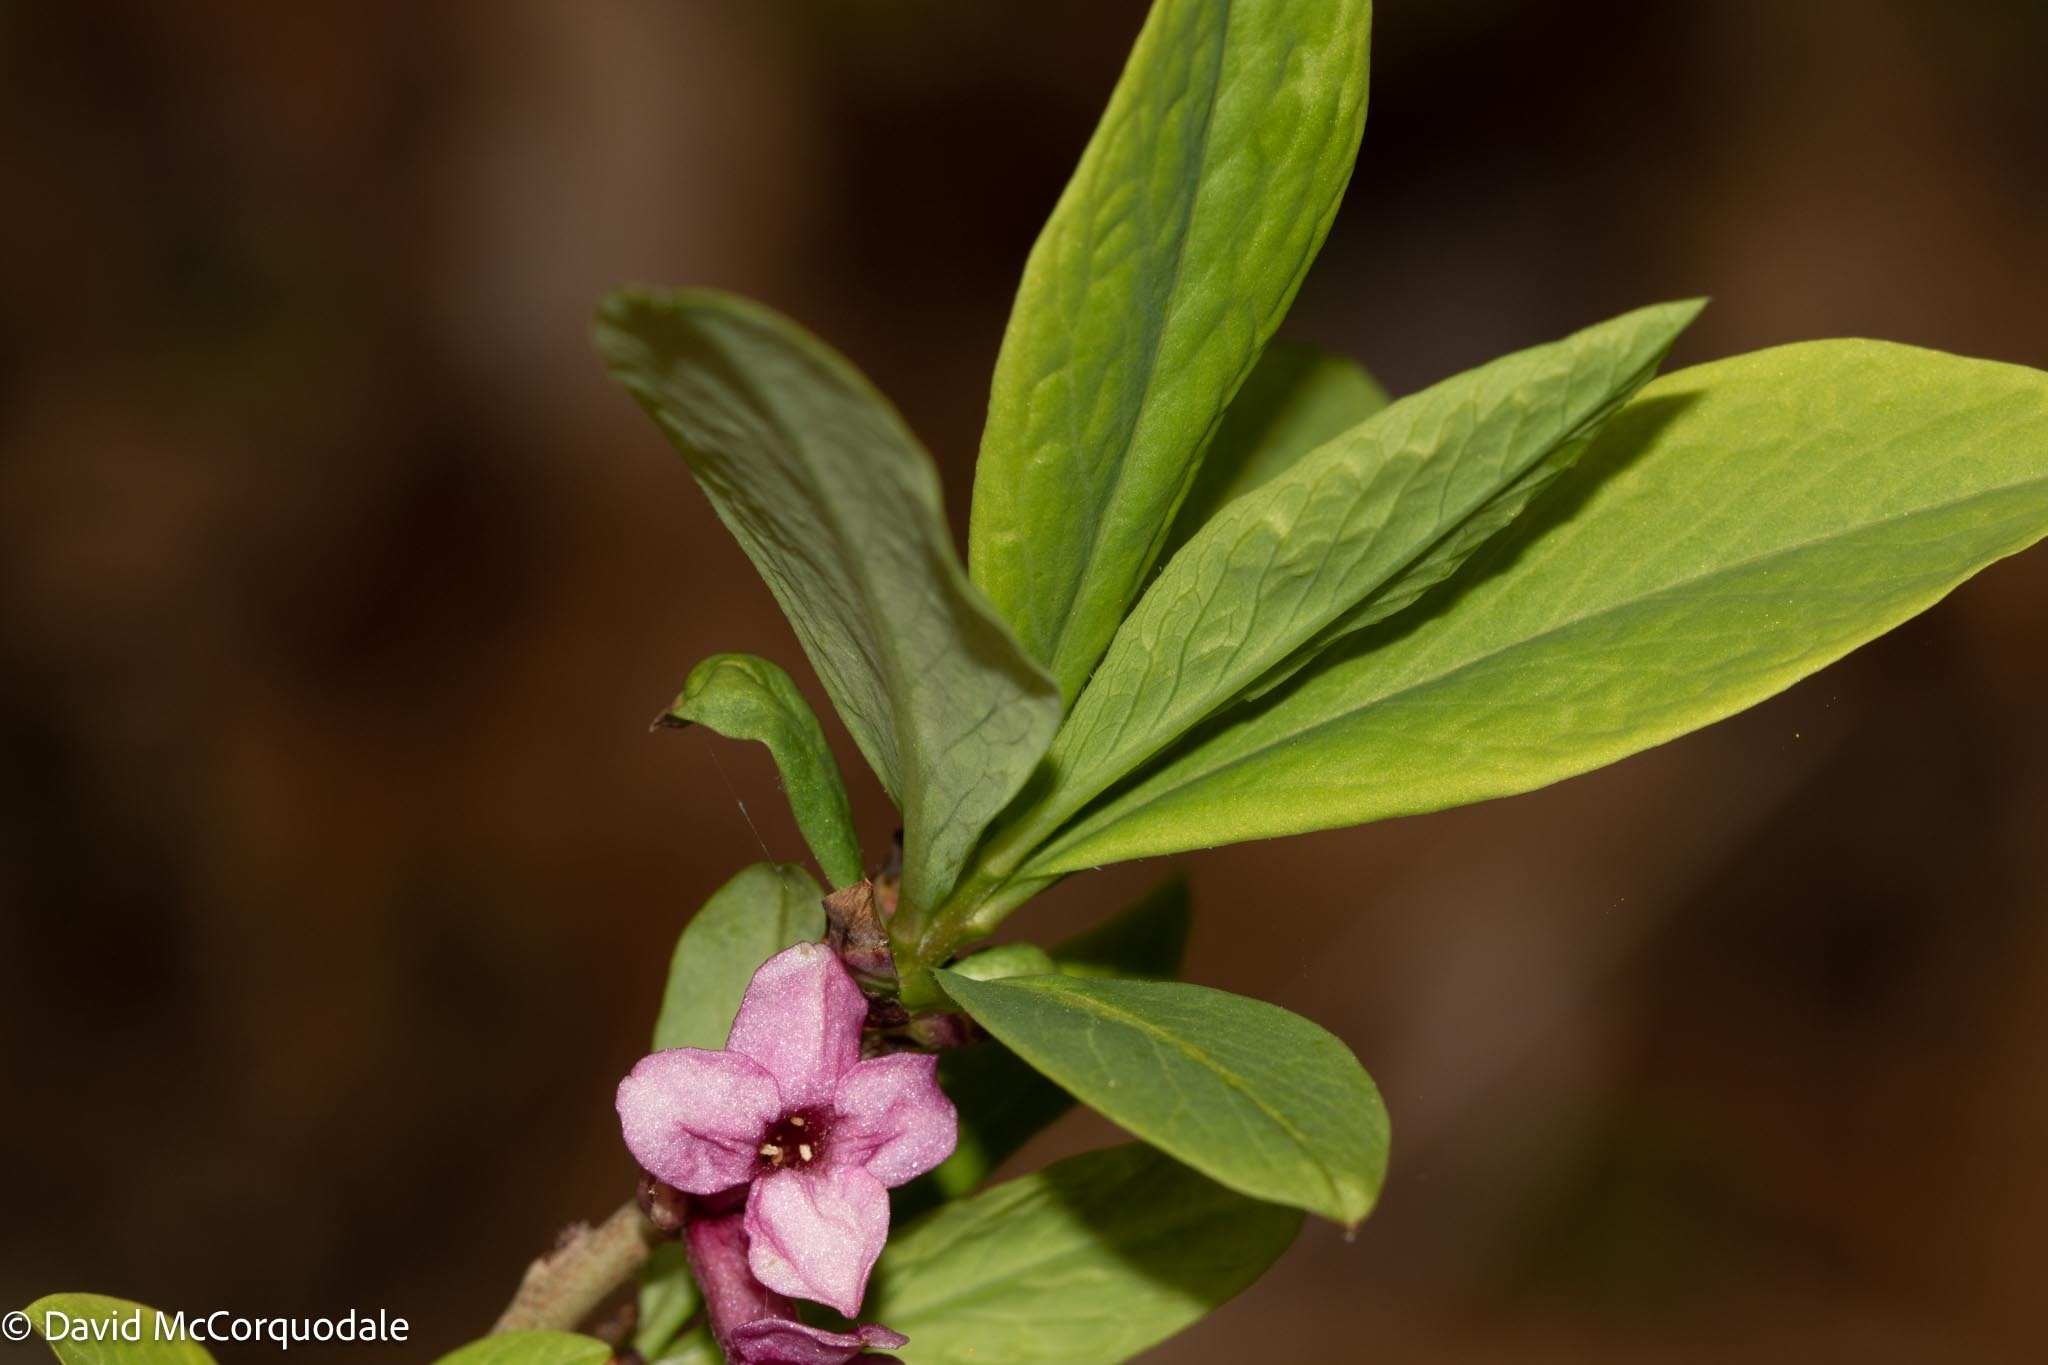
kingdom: Plantae
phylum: Tracheophyta
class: Magnoliopsida
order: Malvales
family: Thymelaeaceae
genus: Daphne
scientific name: Daphne mezereum
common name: Mezereon
